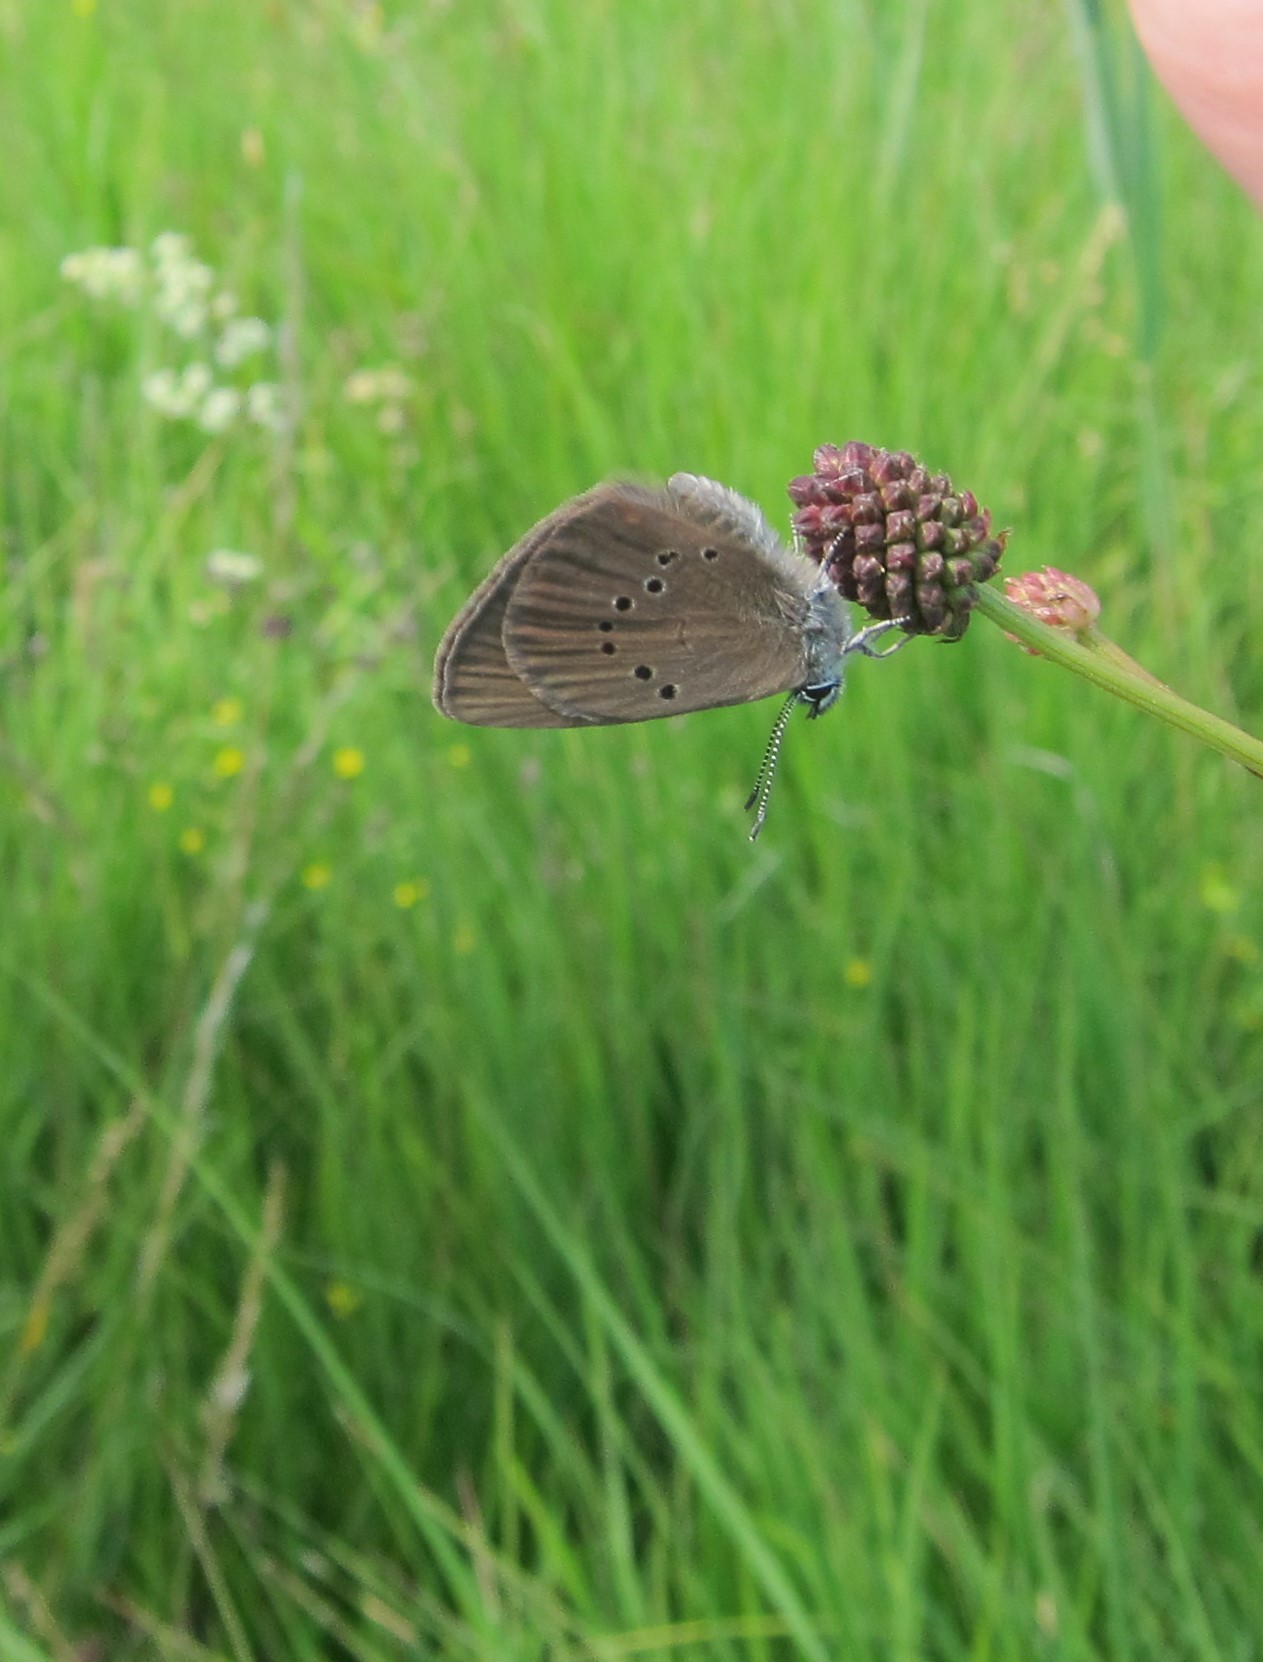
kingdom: Animalia
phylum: Arthropoda
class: Insecta
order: Lepidoptera
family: Lycaenidae
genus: Maculinea
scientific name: Maculinea nausithous
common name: Dusky large blue
